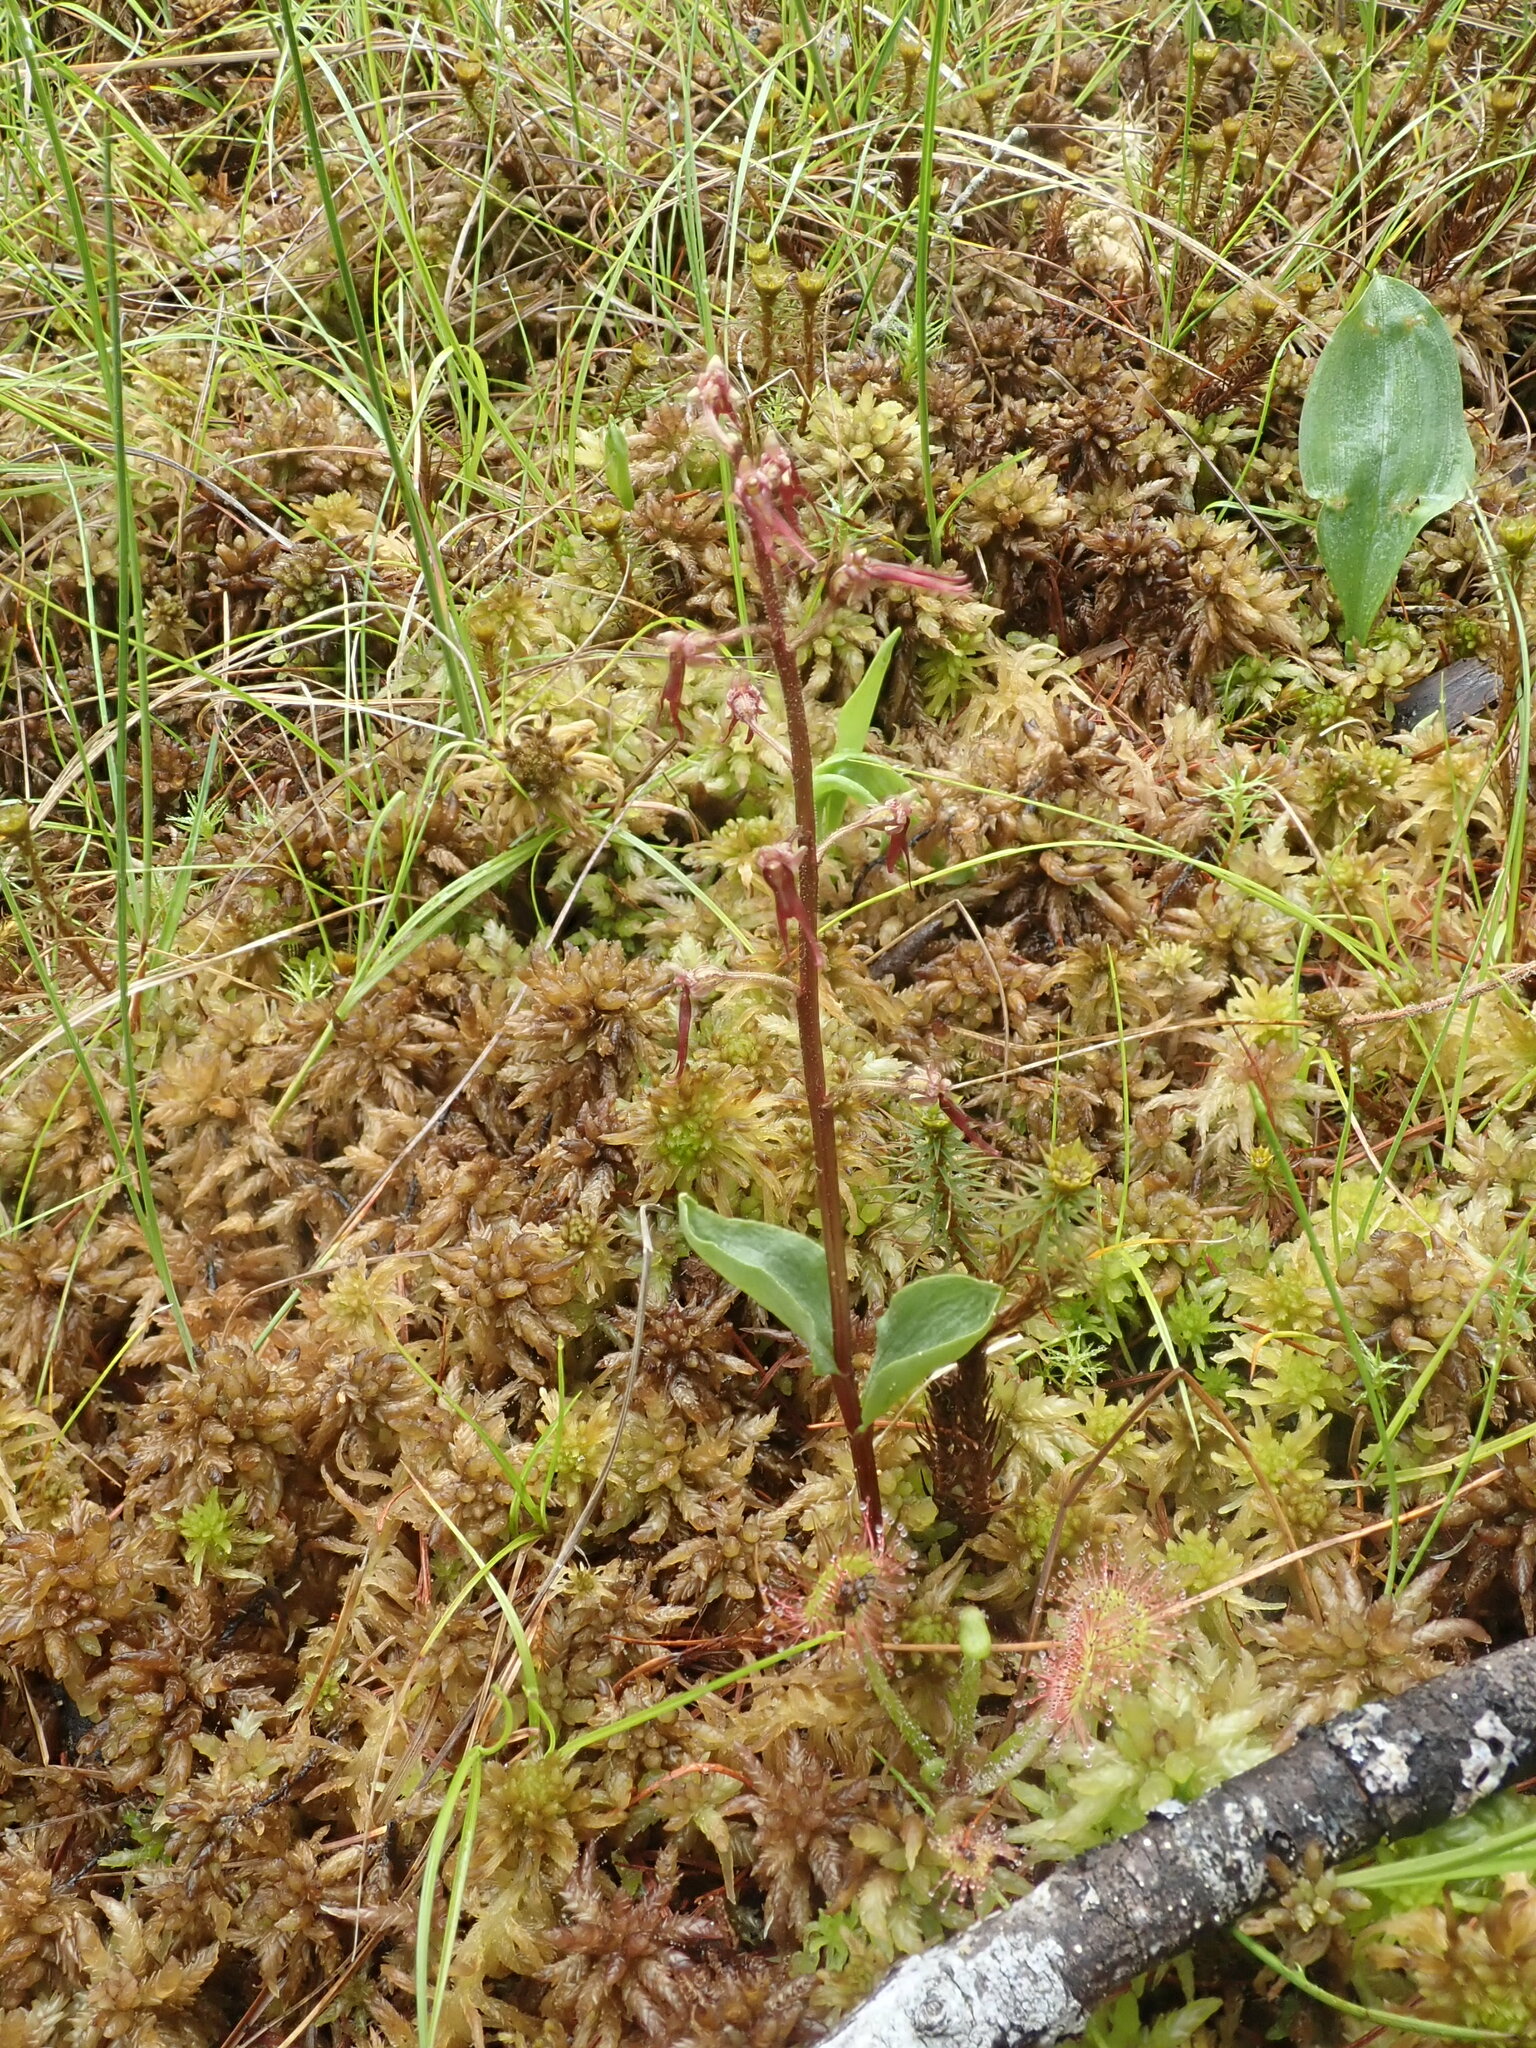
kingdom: Plantae
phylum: Tracheophyta
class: Liliopsida
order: Asparagales
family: Orchidaceae
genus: Neottia
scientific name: Neottia bifolia
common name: Southern twayblade
